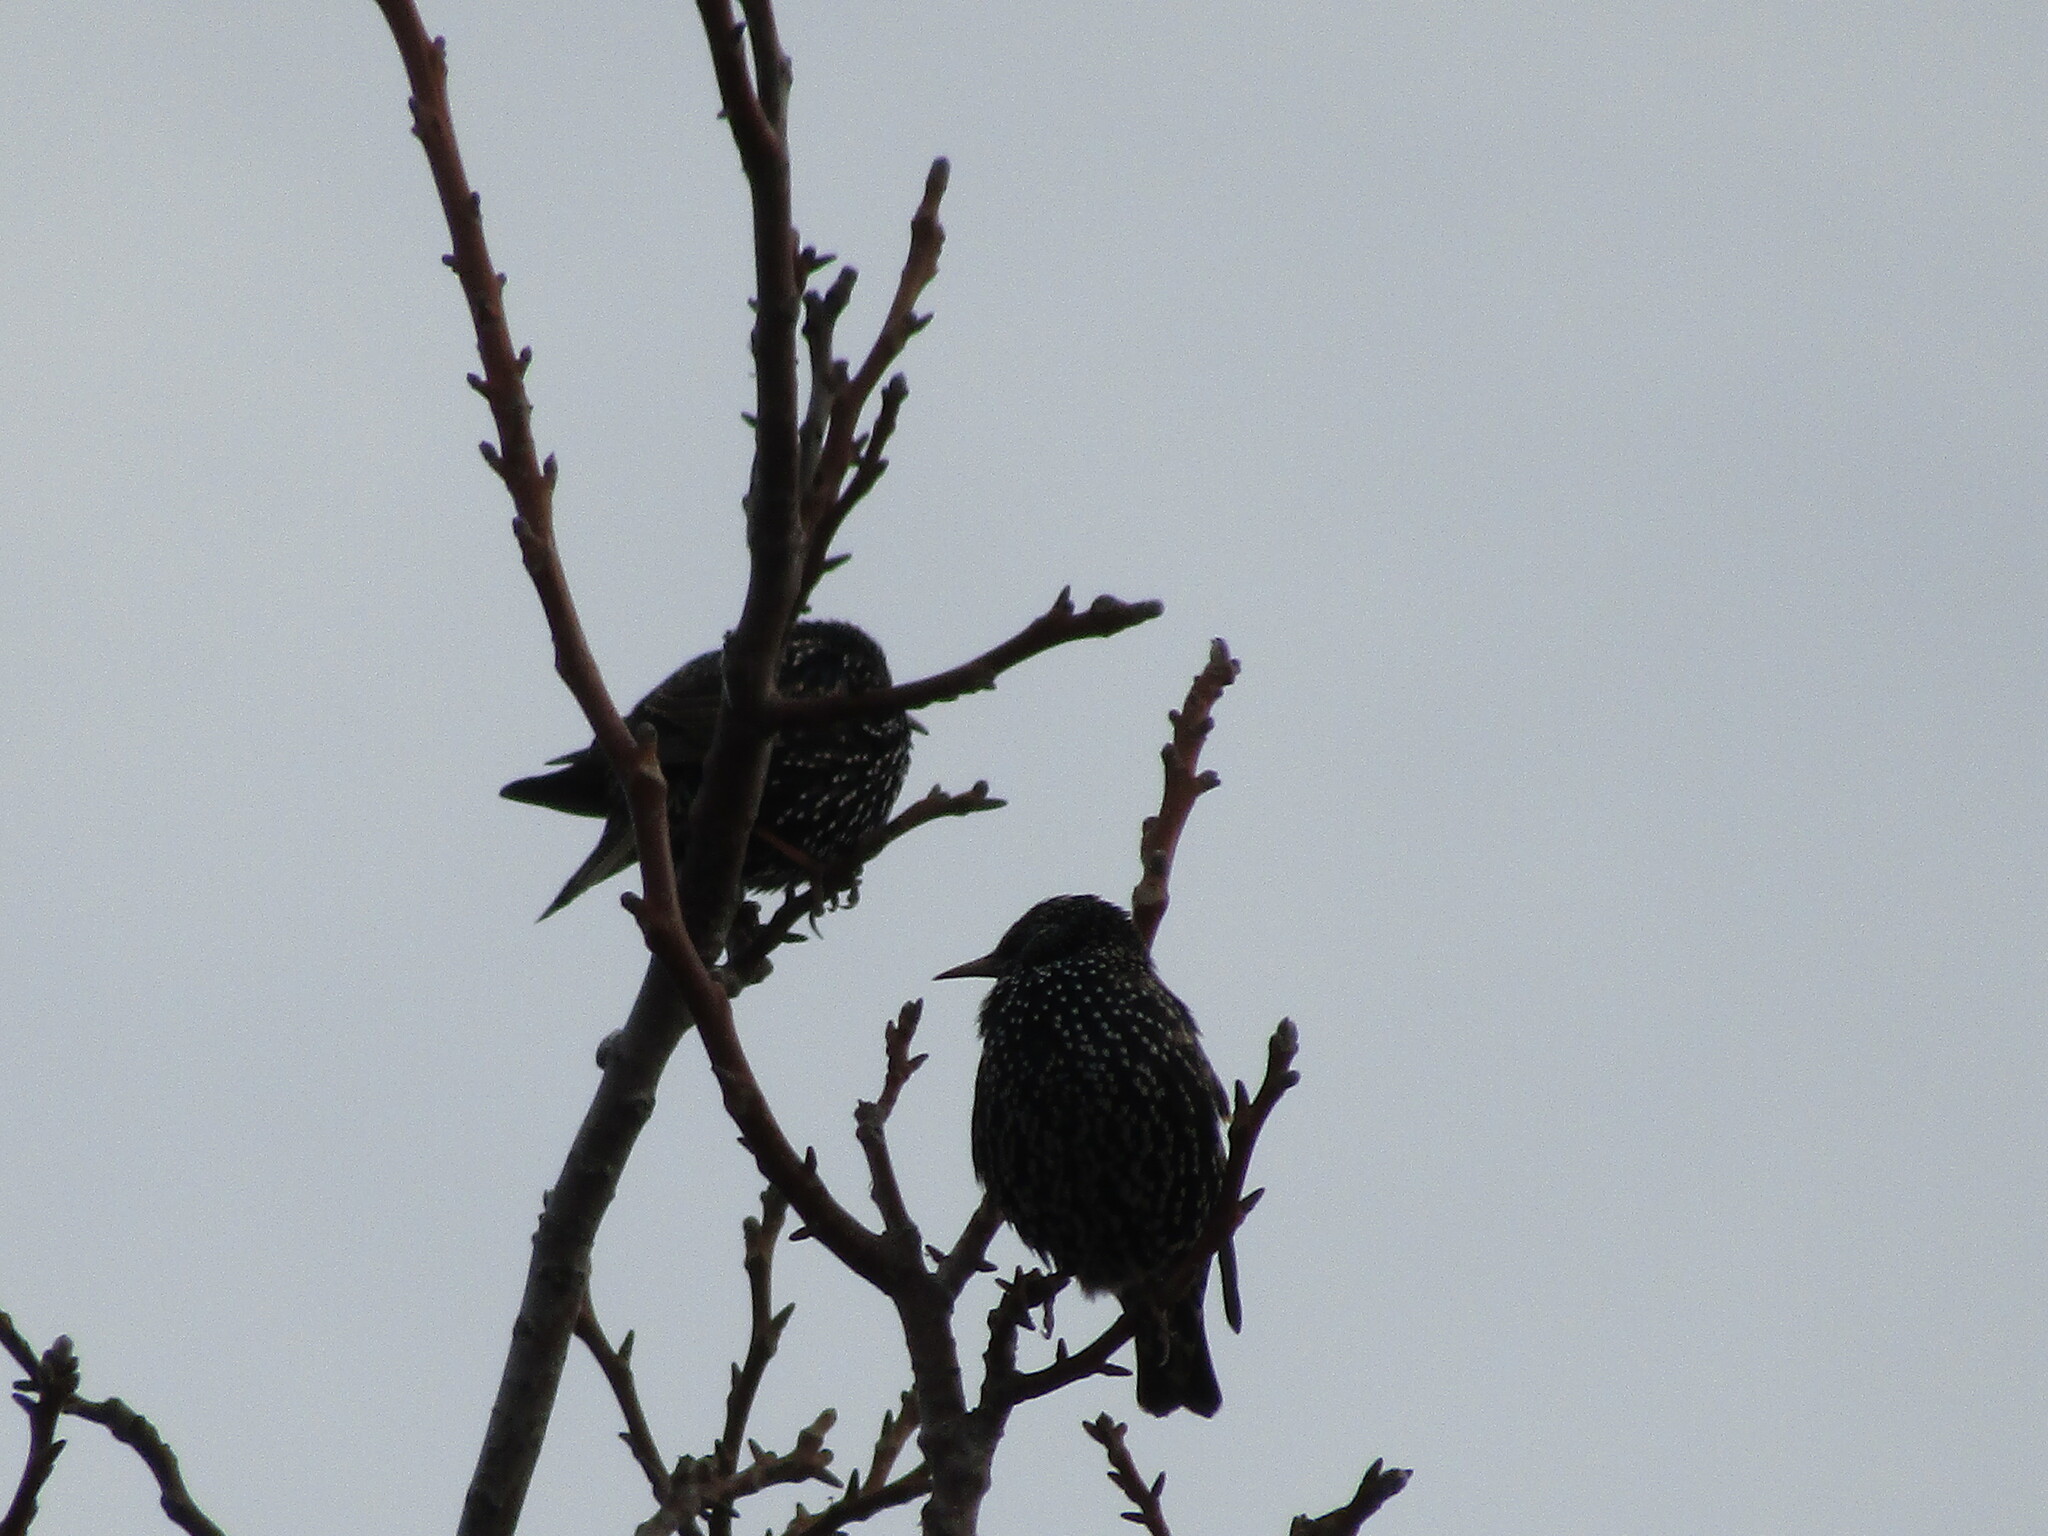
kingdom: Animalia
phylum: Chordata
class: Aves
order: Passeriformes
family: Sturnidae
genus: Sturnus
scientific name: Sturnus vulgaris
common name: Common starling
